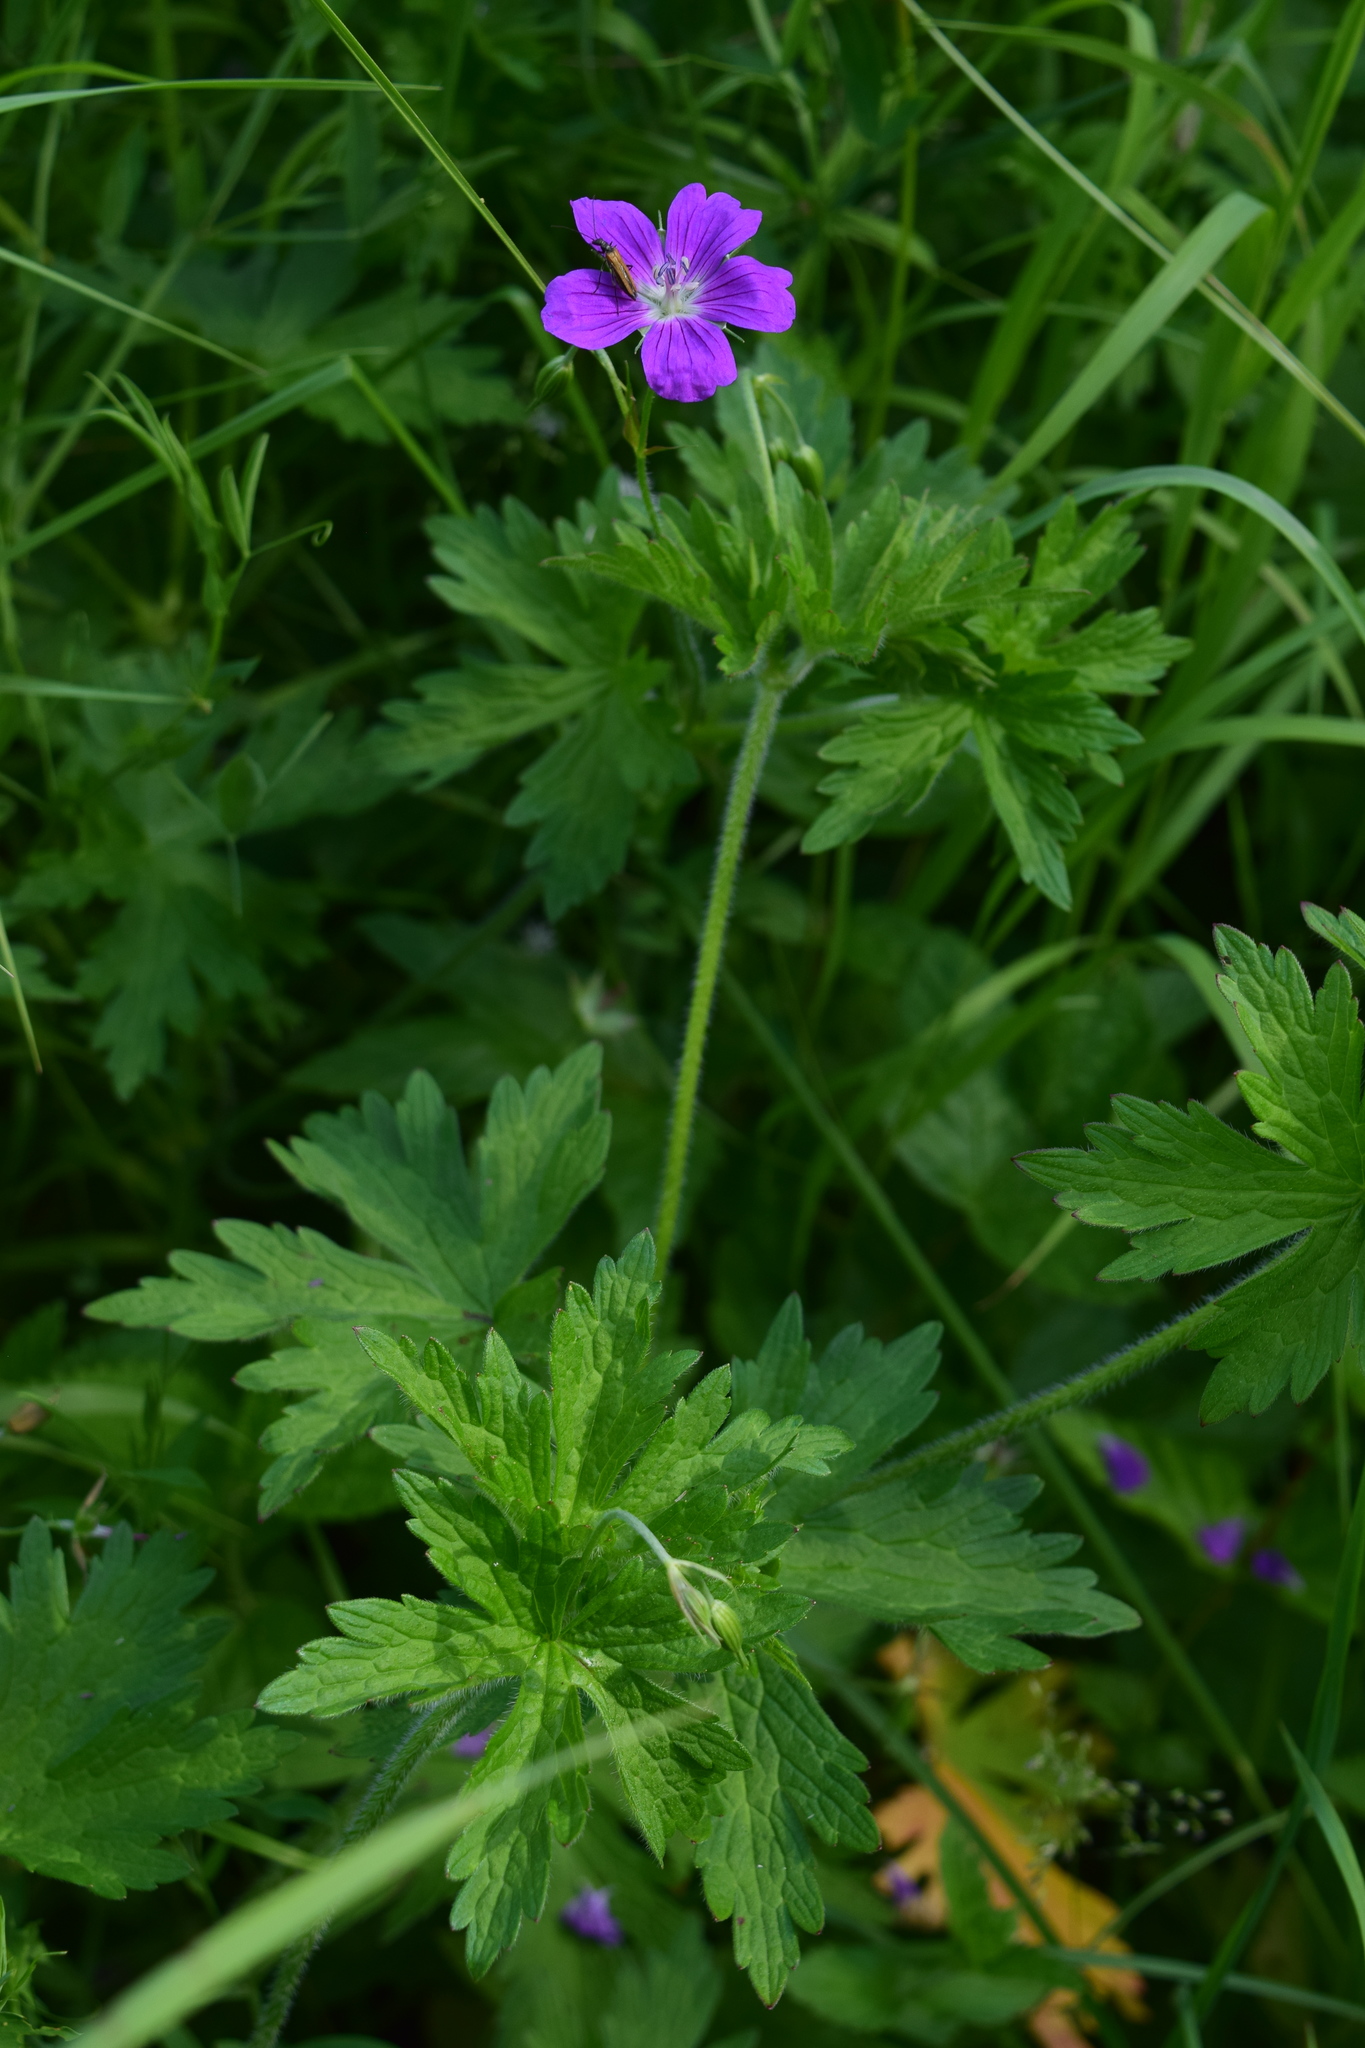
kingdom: Plantae
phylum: Tracheophyta
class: Magnoliopsida
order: Geraniales
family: Geraniaceae
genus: Geranium
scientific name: Geranium palustre
